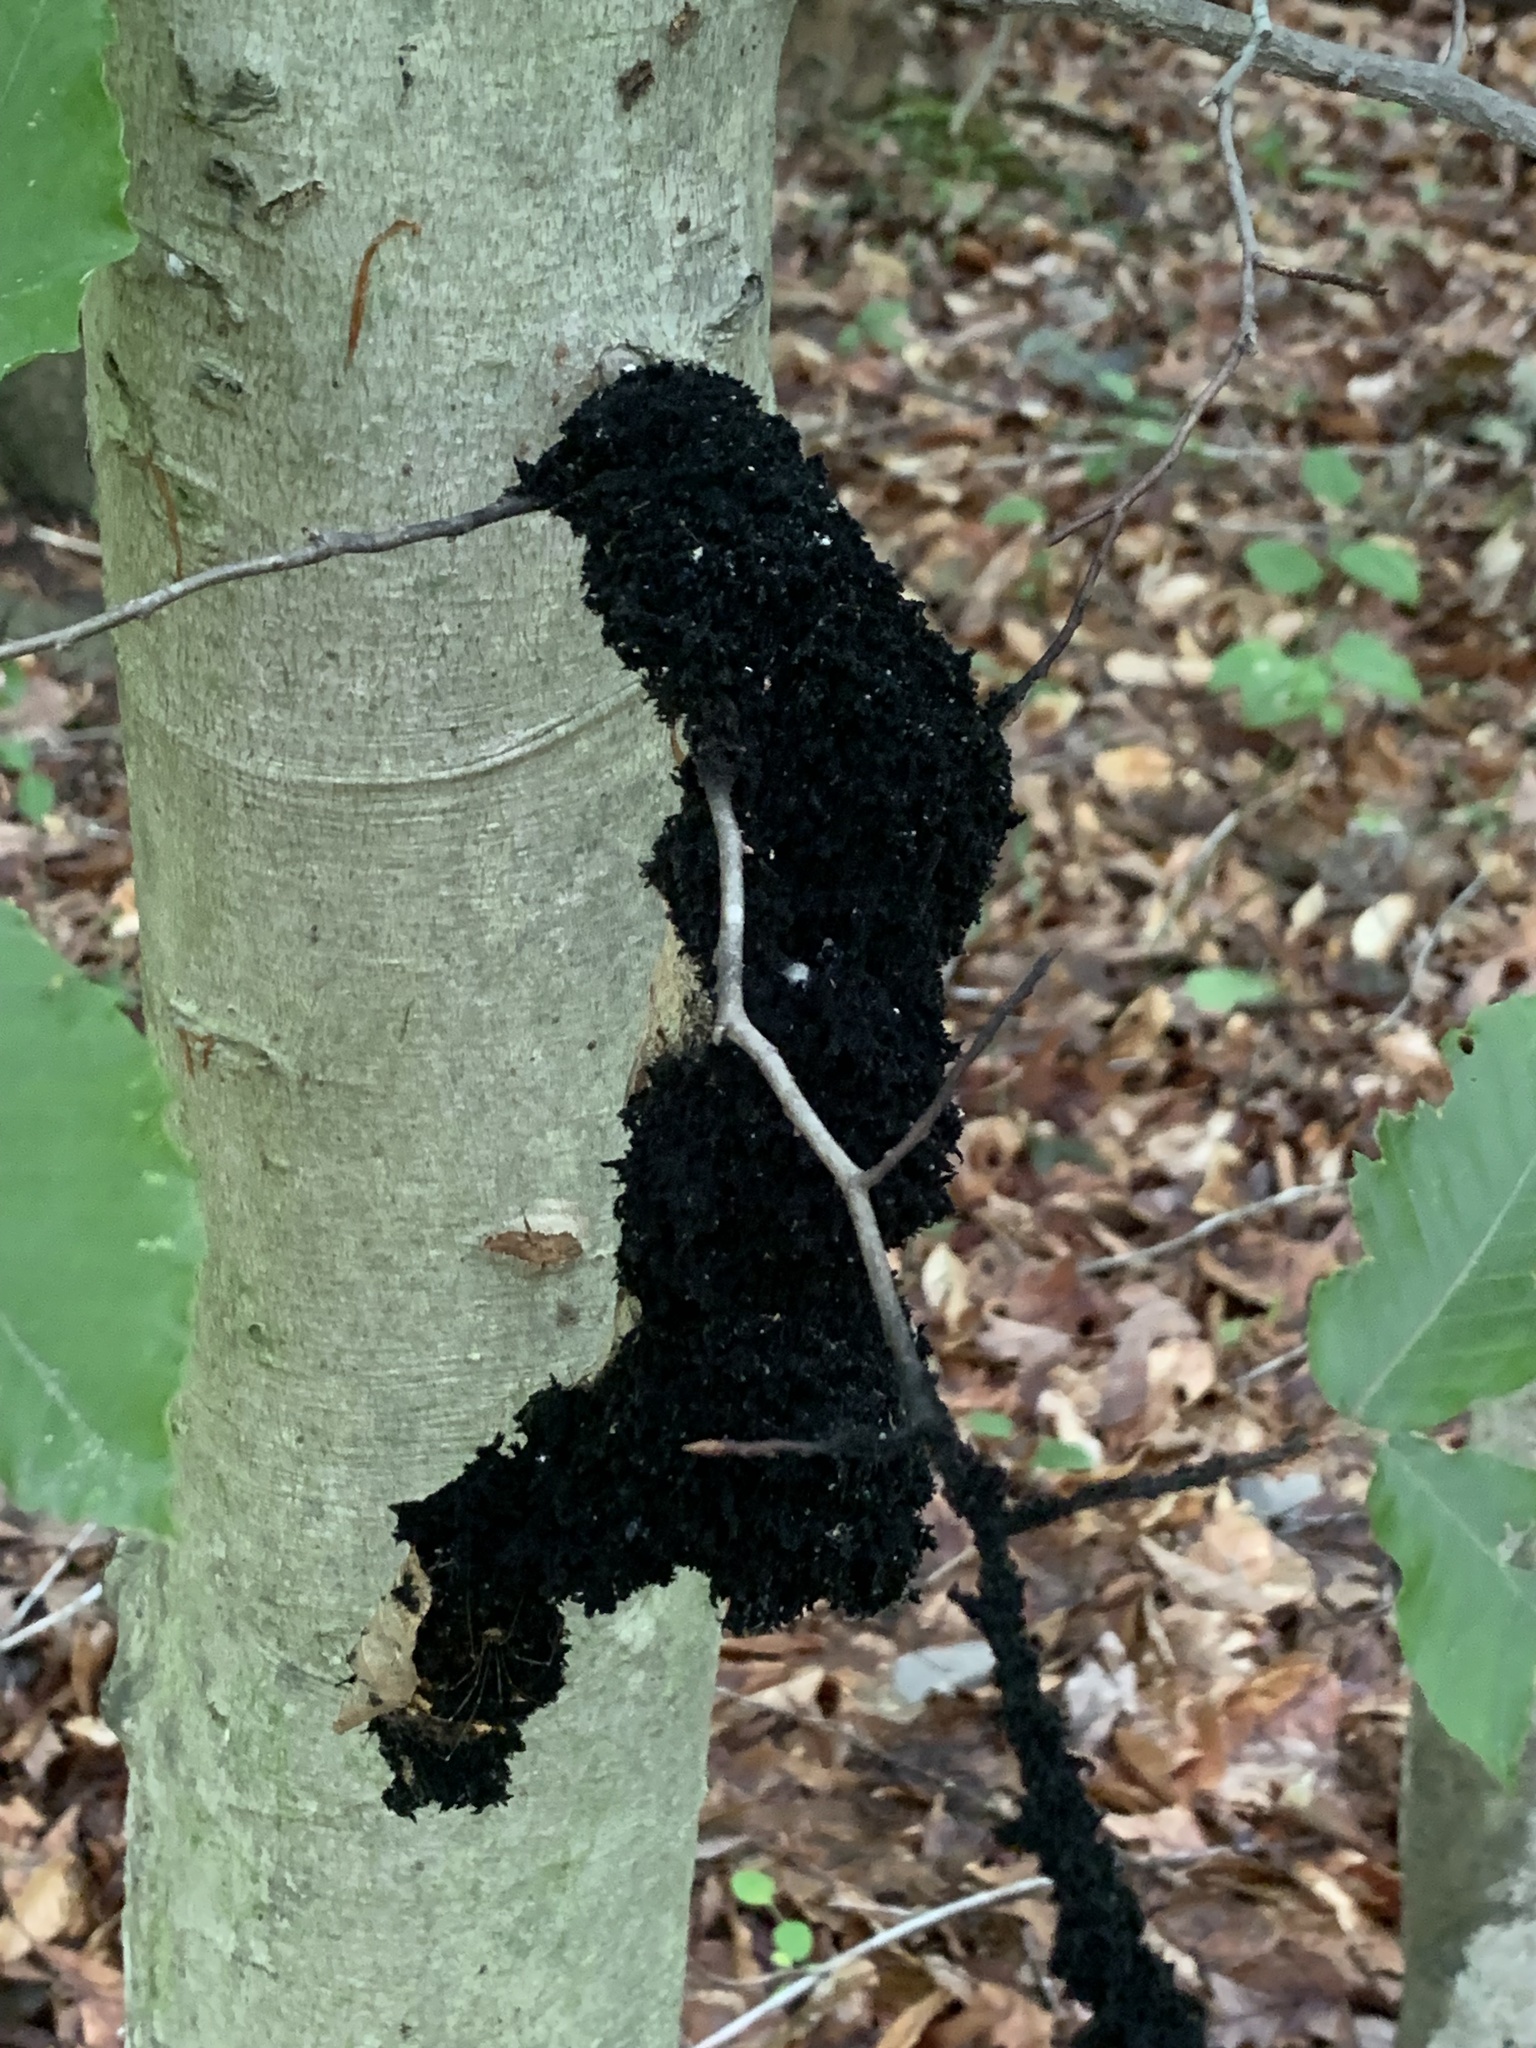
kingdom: Fungi
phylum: Ascomycota
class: Dothideomycetes
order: Capnodiales
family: Capnodiaceae
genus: Scorias
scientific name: Scorias spongiosa
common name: Black sooty mold
